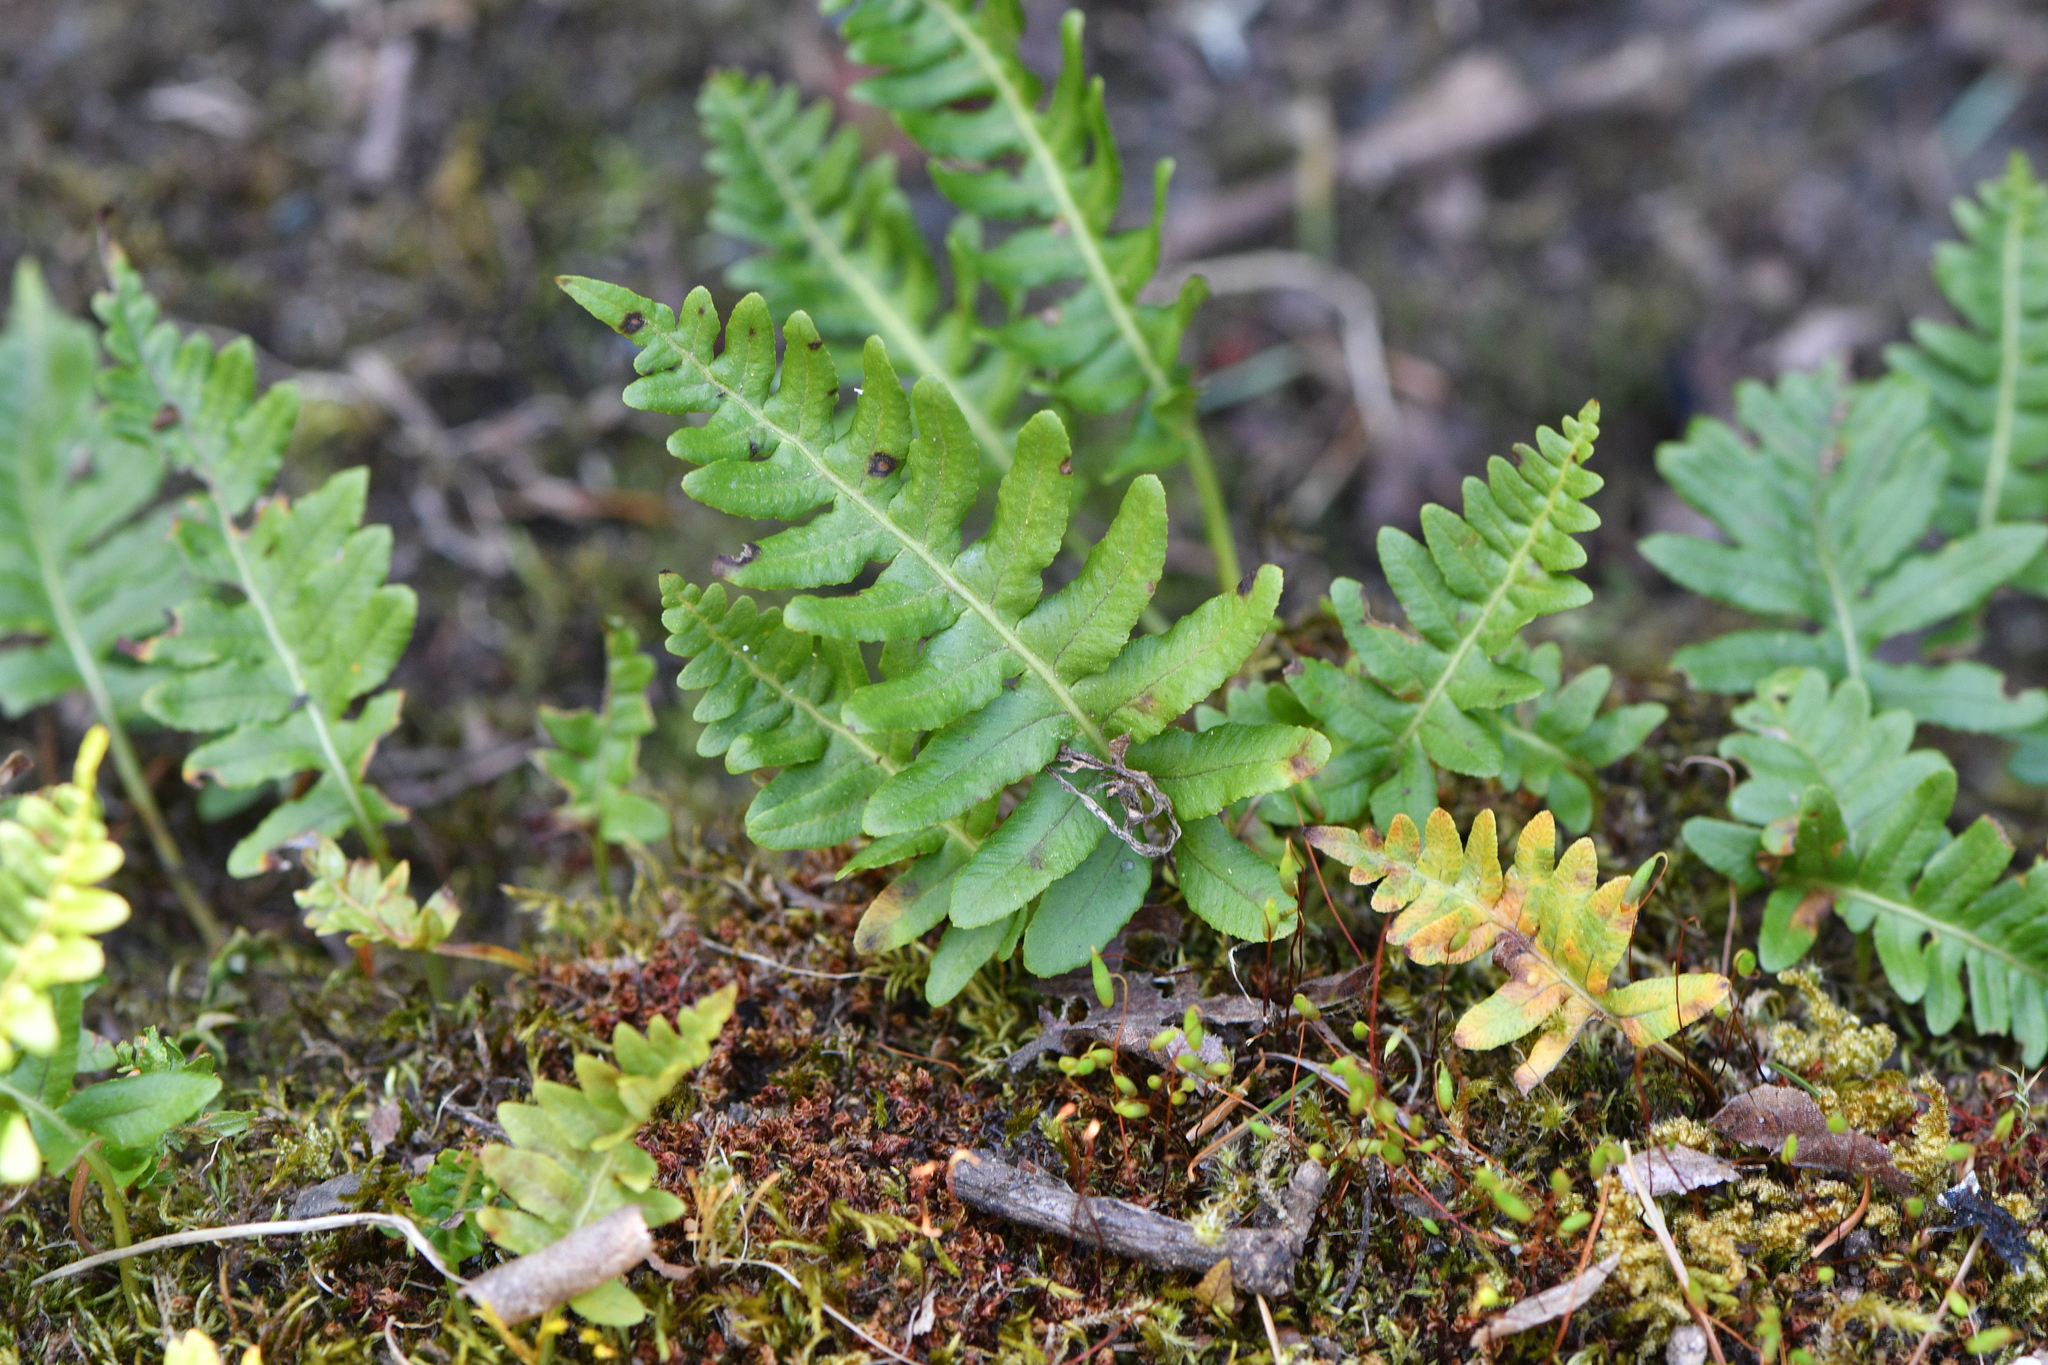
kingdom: Plantae
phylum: Tracheophyta
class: Polypodiopsida
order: Polypodiales
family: Polypodiaceae
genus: Polypodium
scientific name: Polypodium glycyrrhiza
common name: Licorice fern
